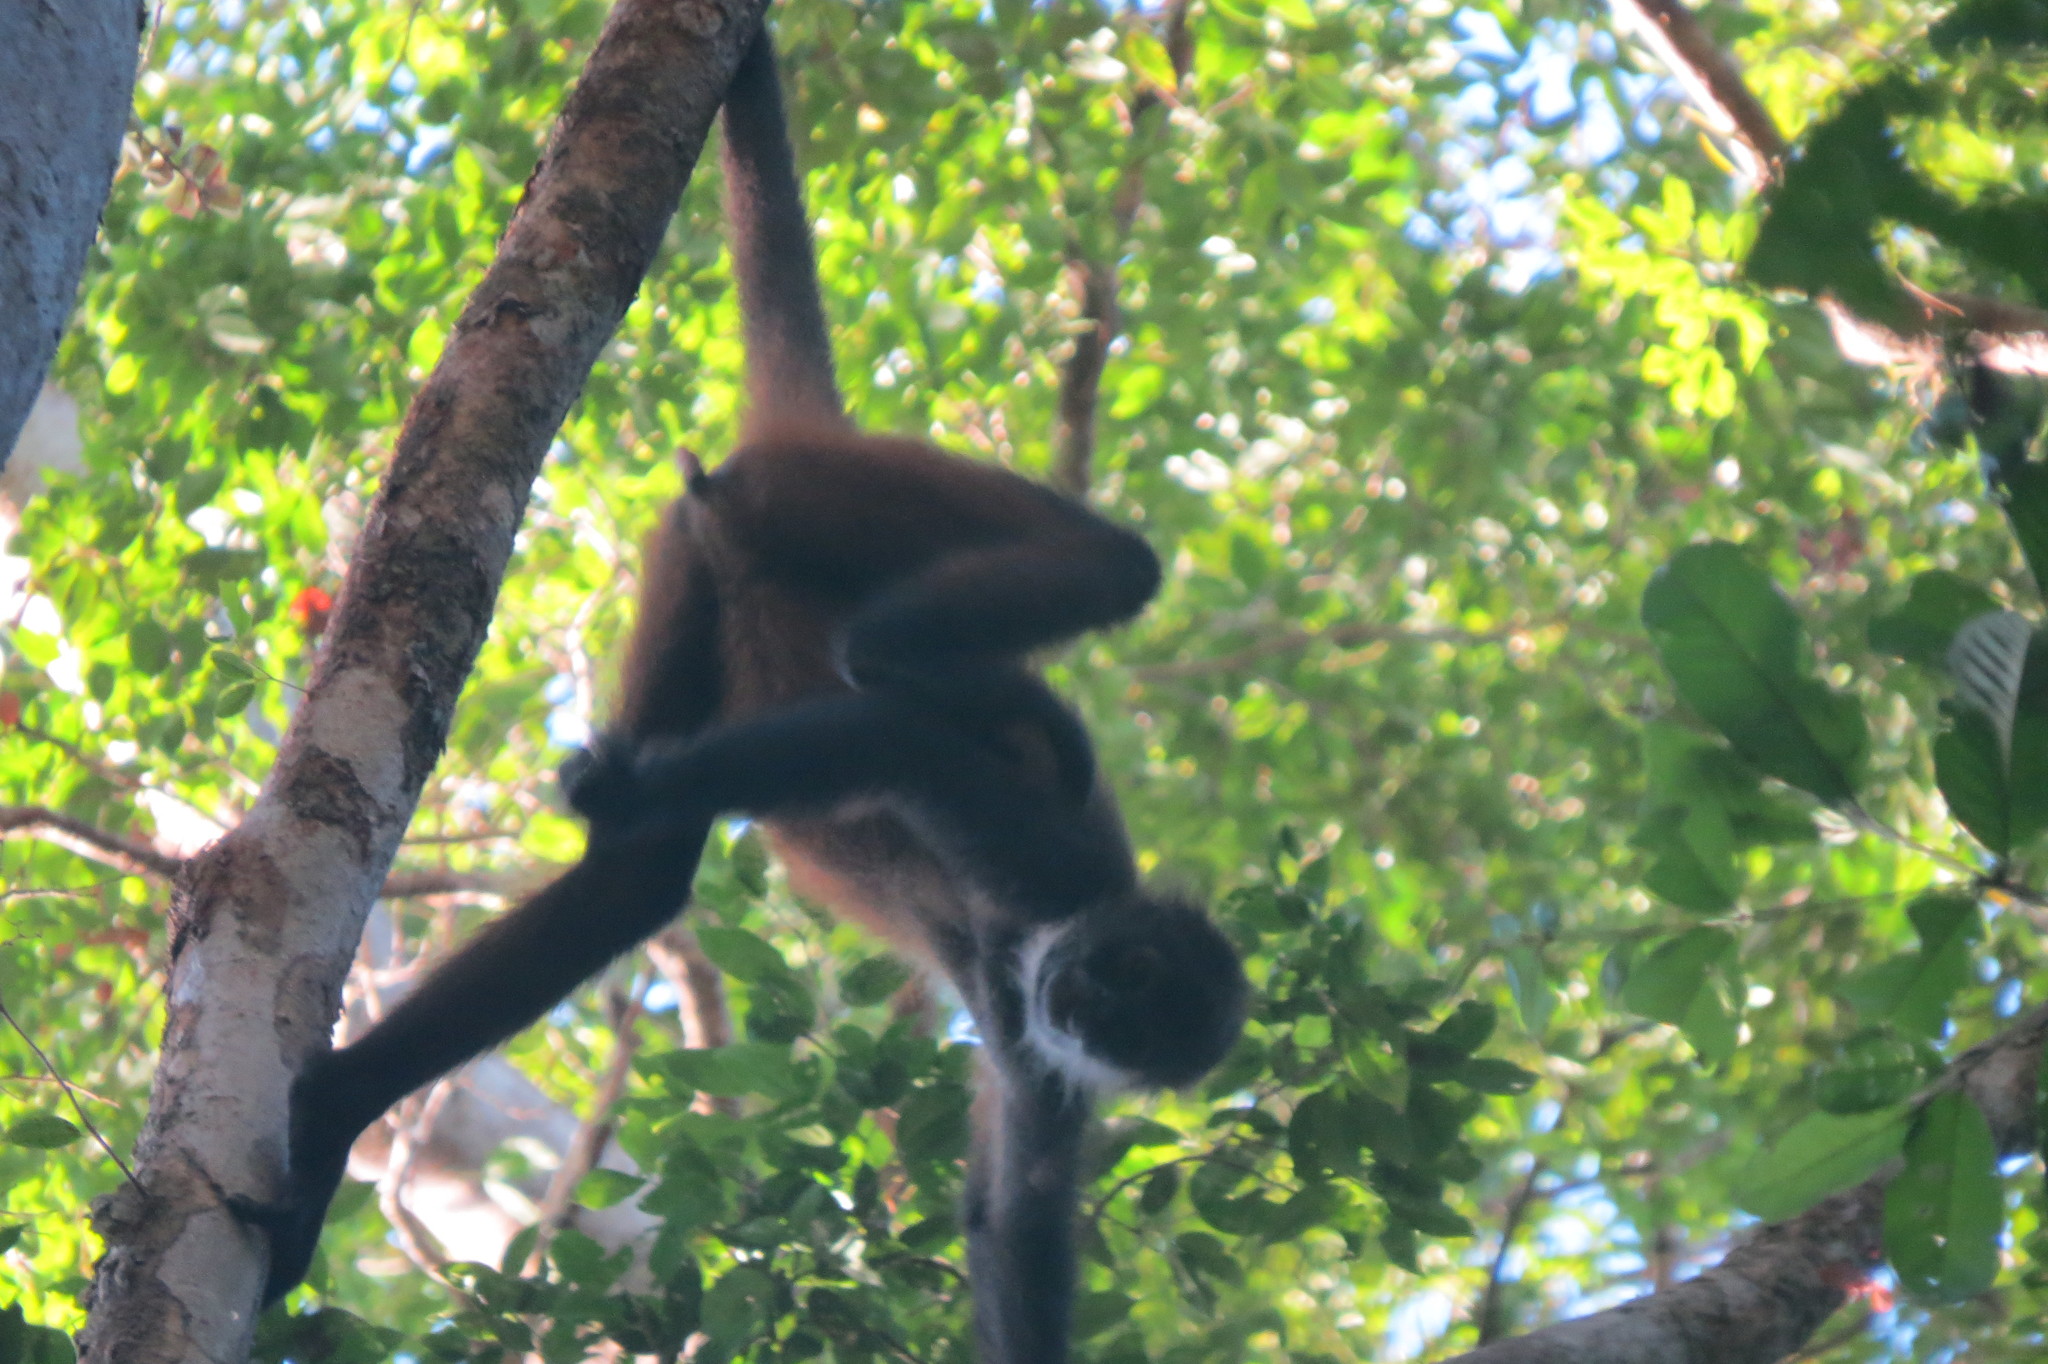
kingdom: Animalia
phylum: Chordata
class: Mammalia
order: Primates
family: Atelidae
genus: Ateles
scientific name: Ateles geoffroyi
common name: Black-handed spider monkey
